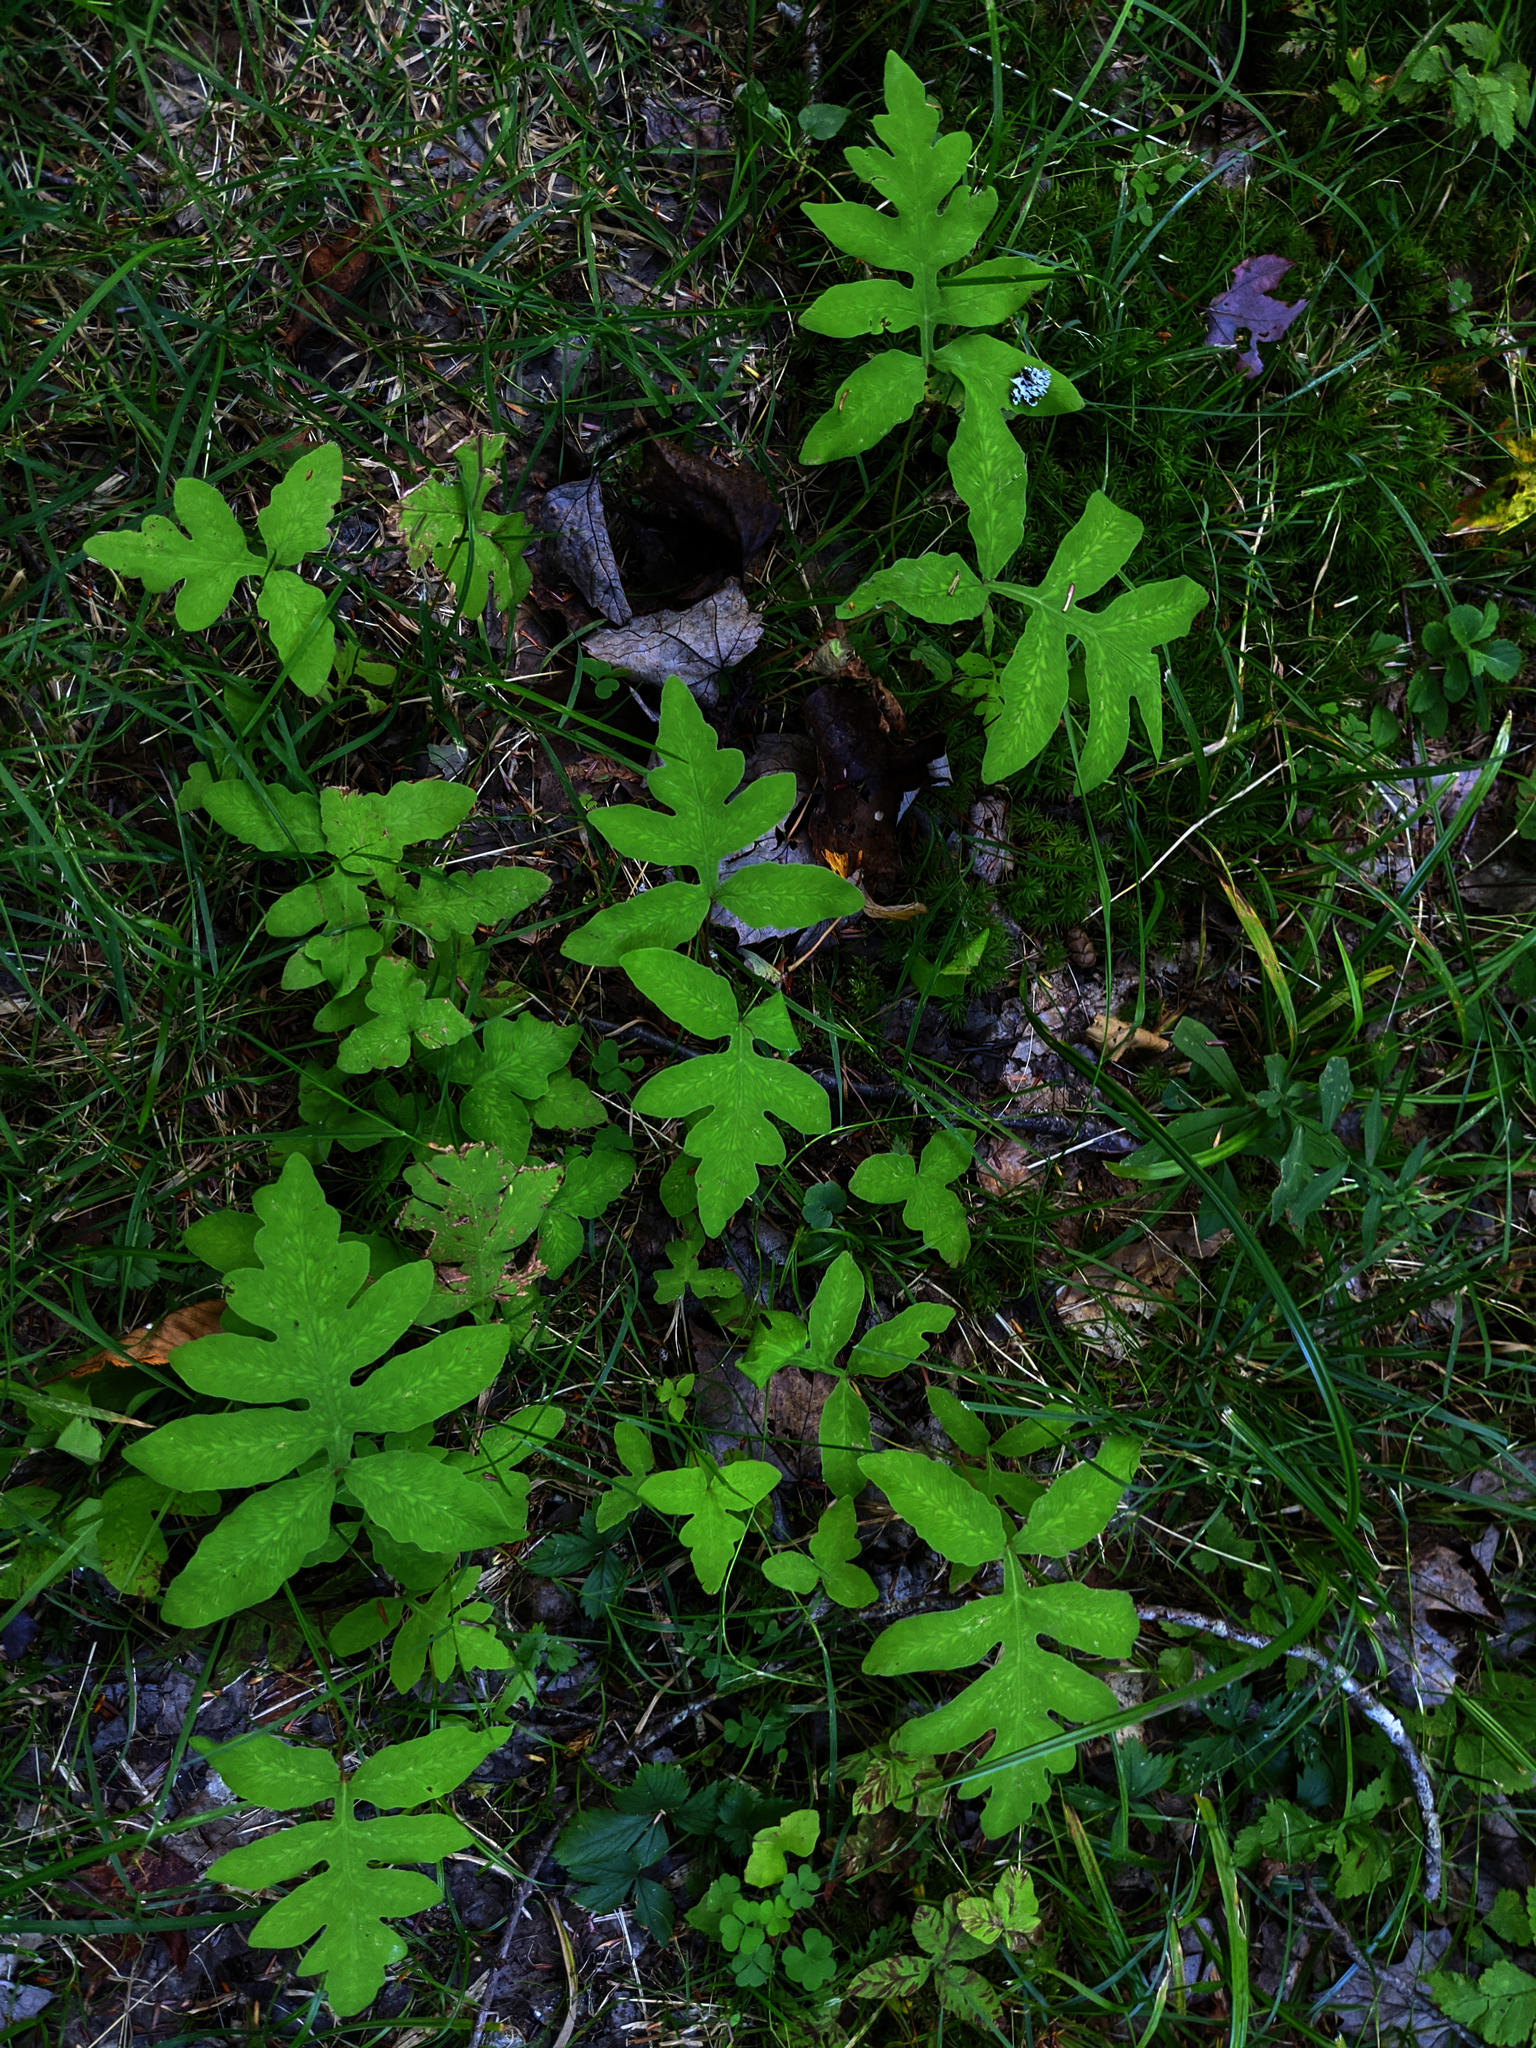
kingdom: Plantae
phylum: Tracheophyta
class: Polypodiopsida
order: Polypodiales
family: Onocleaceae
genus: Onoclea
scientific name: Onoclea sensibilis
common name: Sensitive fern
